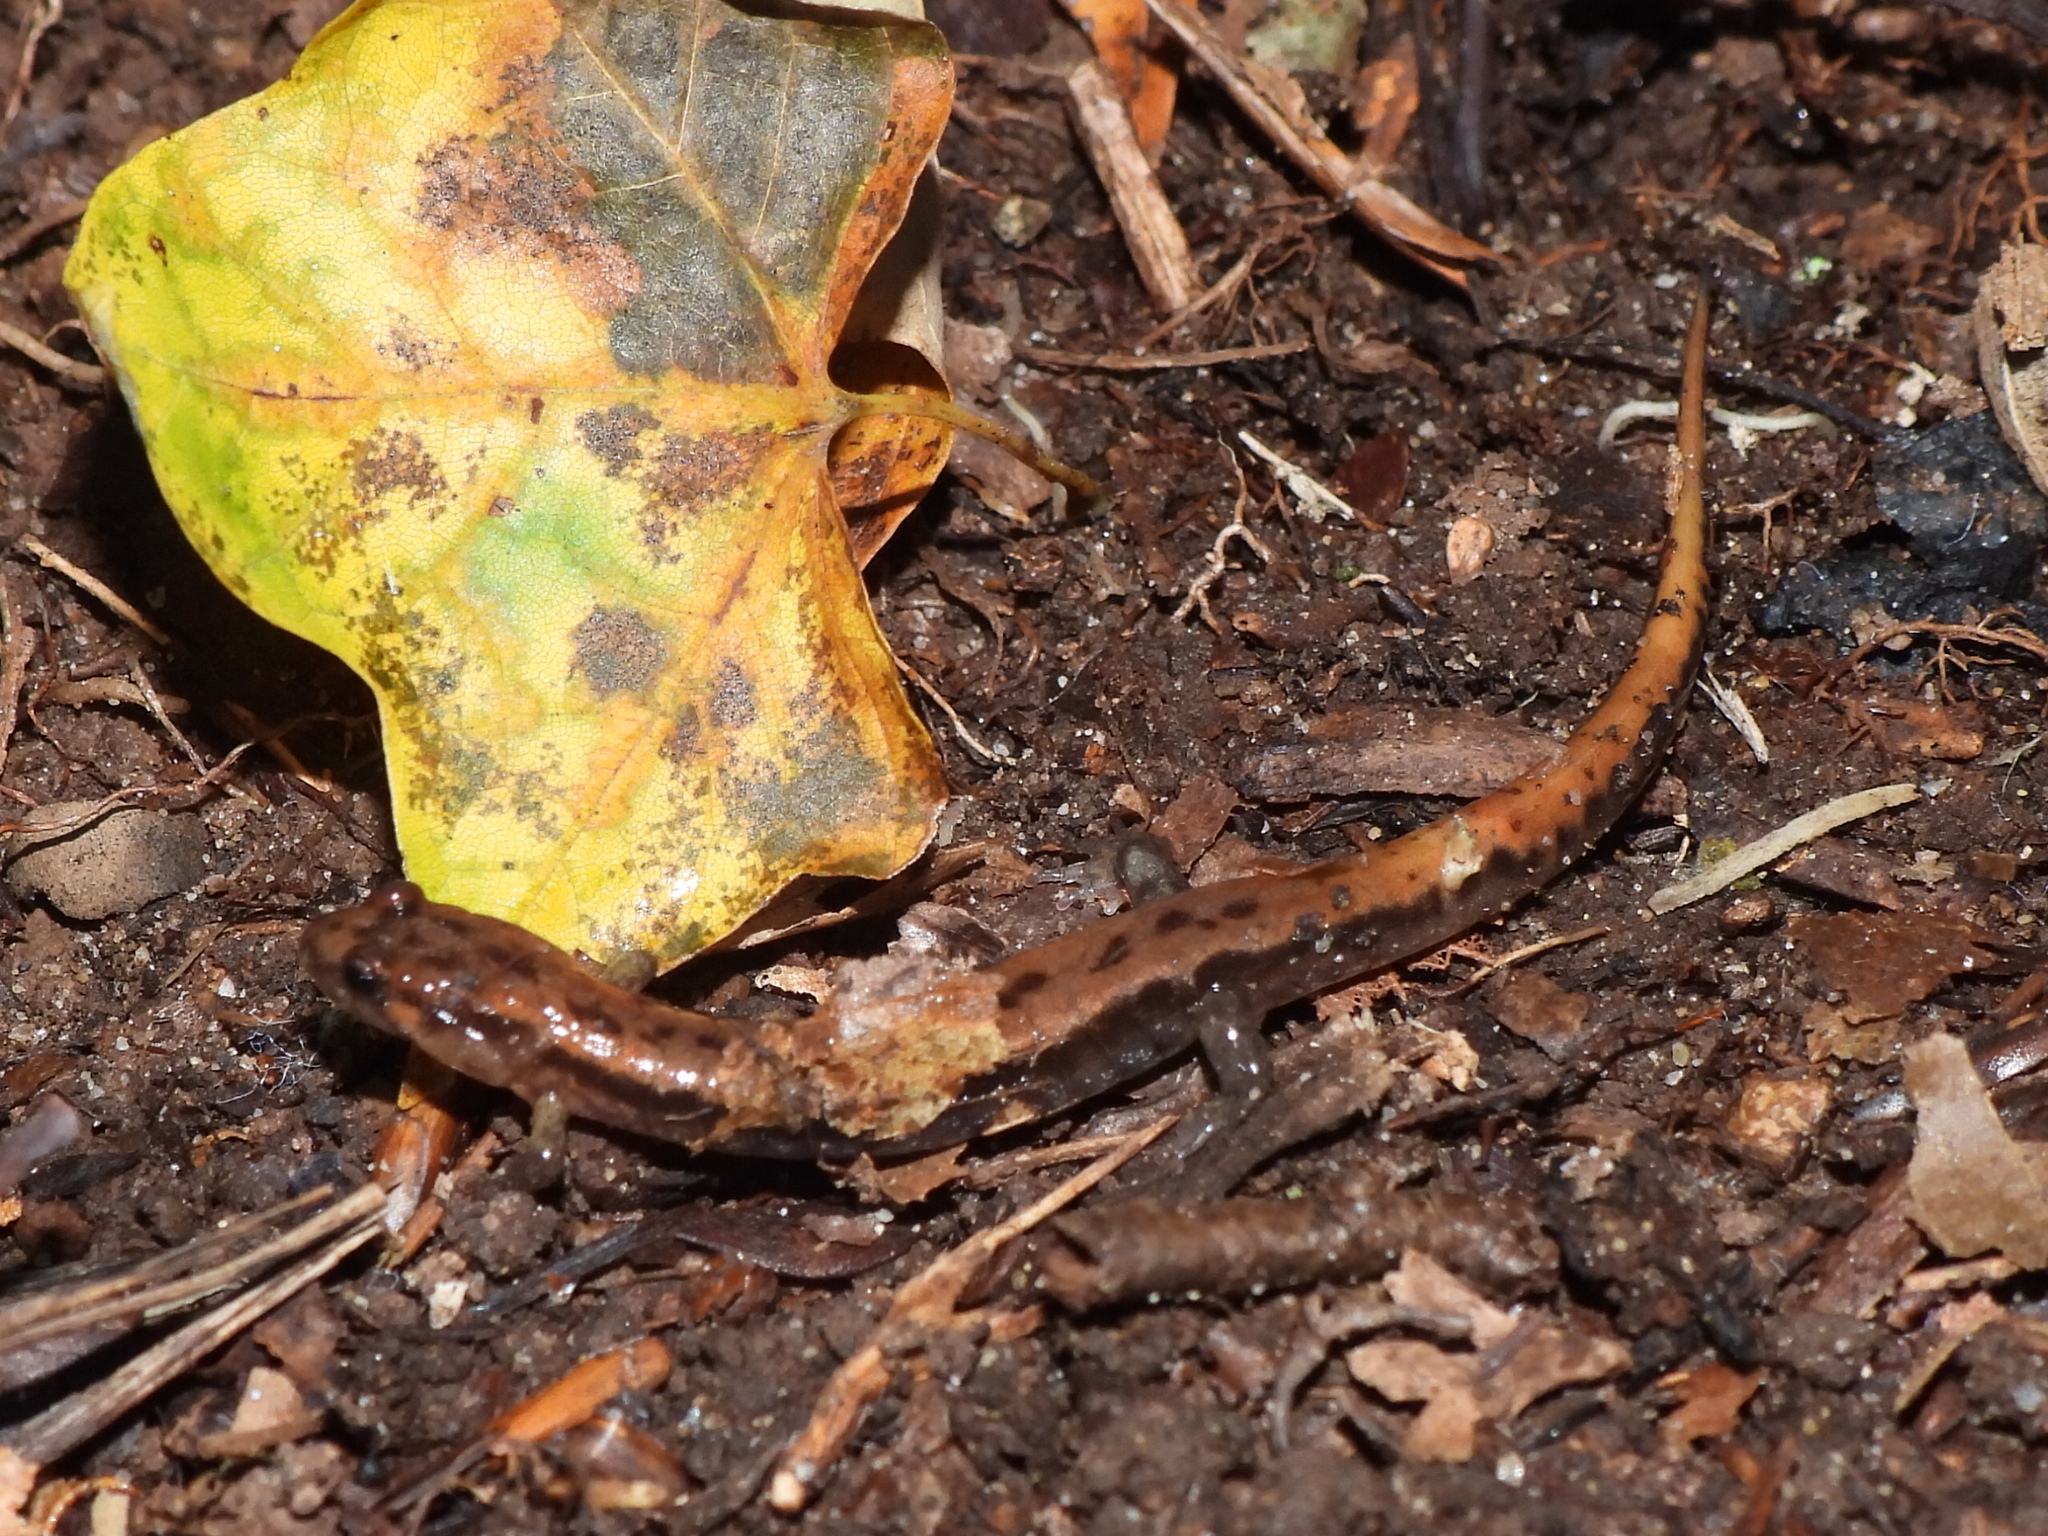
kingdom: Animalia
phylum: Chordata
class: Amphibia
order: Caudata
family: Plethodontidae
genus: Desmognathus
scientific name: Desmognathus ochrophaeus
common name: Allegheny mountain dusky salamander
